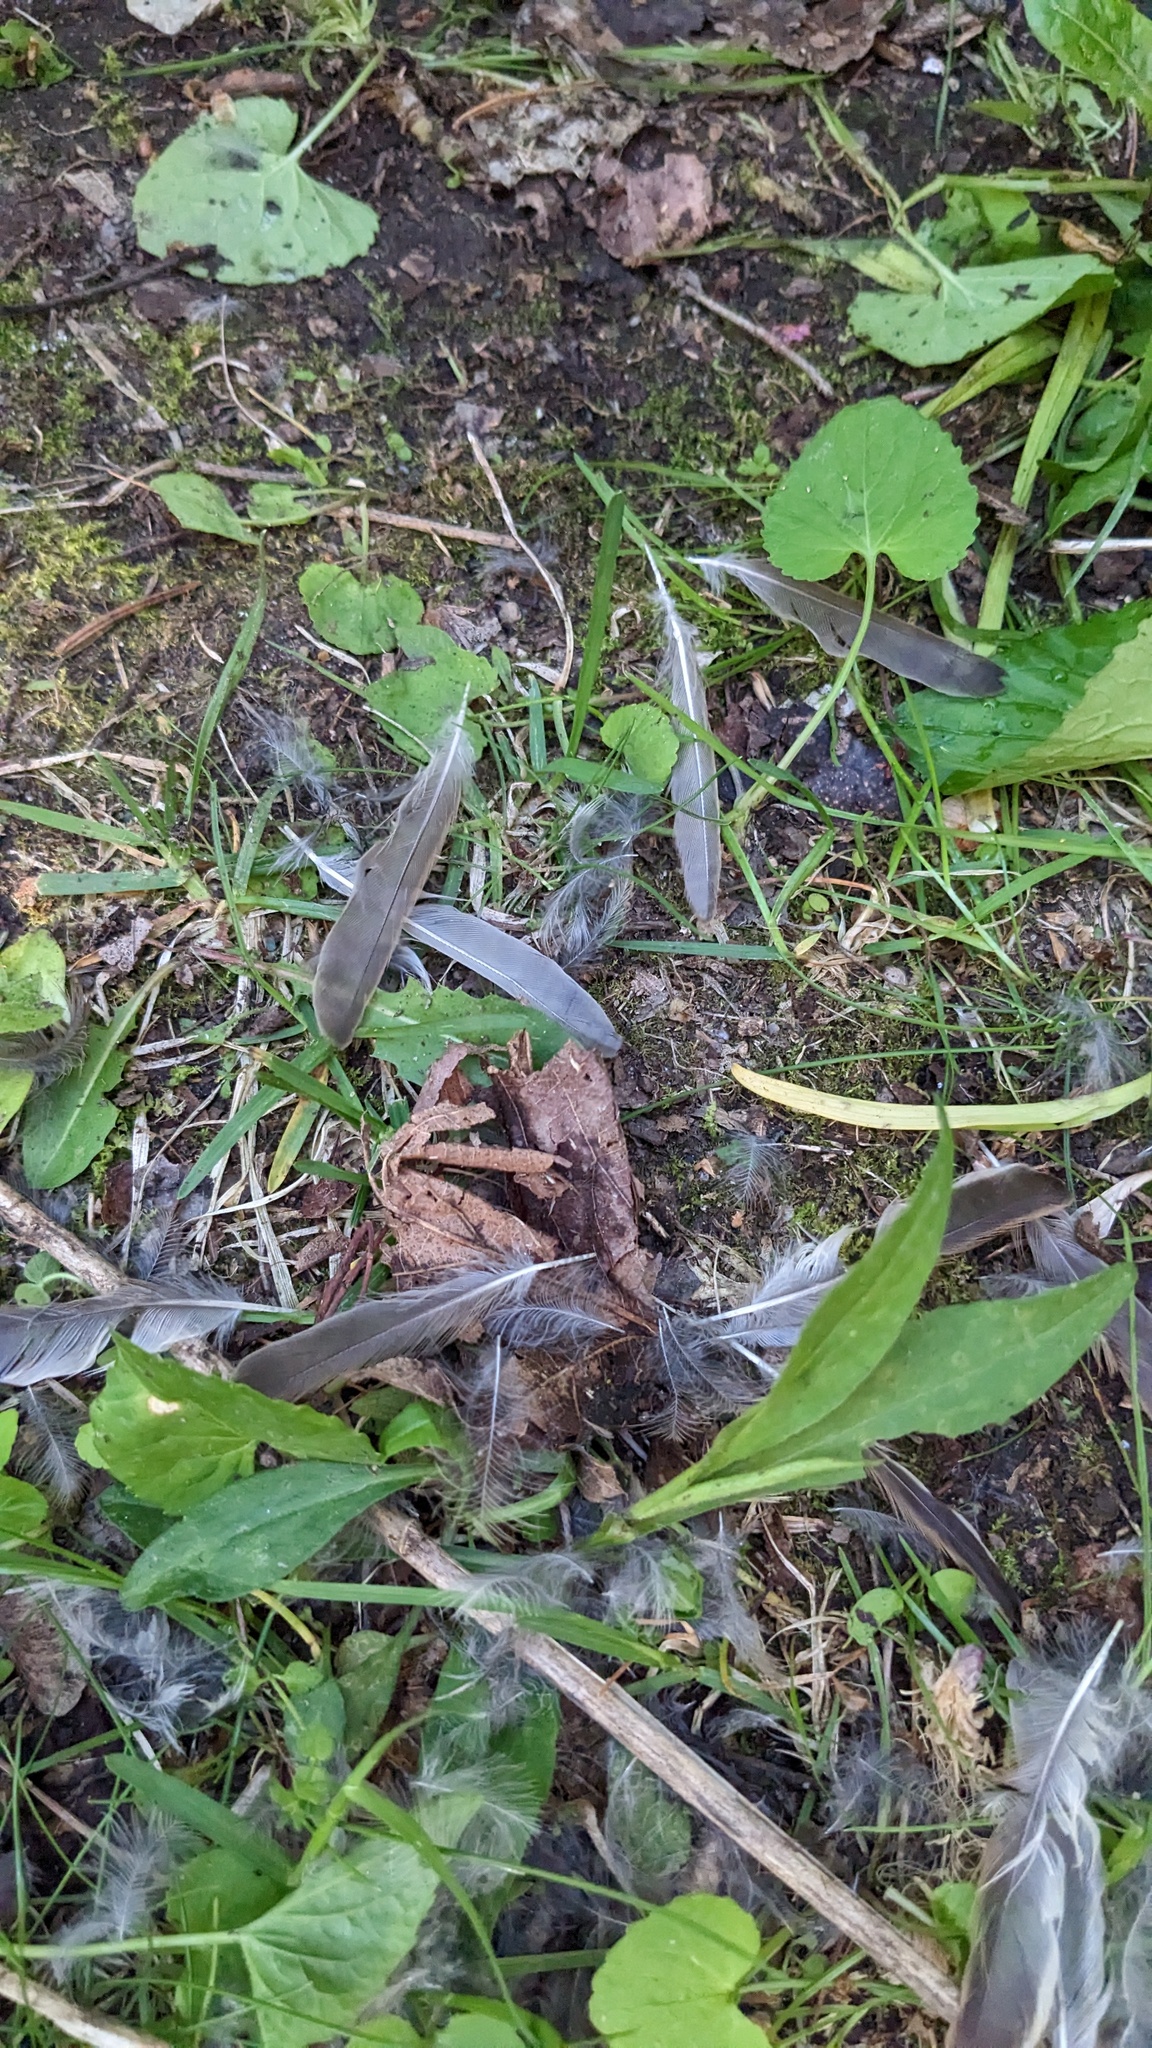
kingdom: Animalia
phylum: Chordata
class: Aves
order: Passeriformes
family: Passeridae
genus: Passer
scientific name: Passer domesticus
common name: House sparrow
